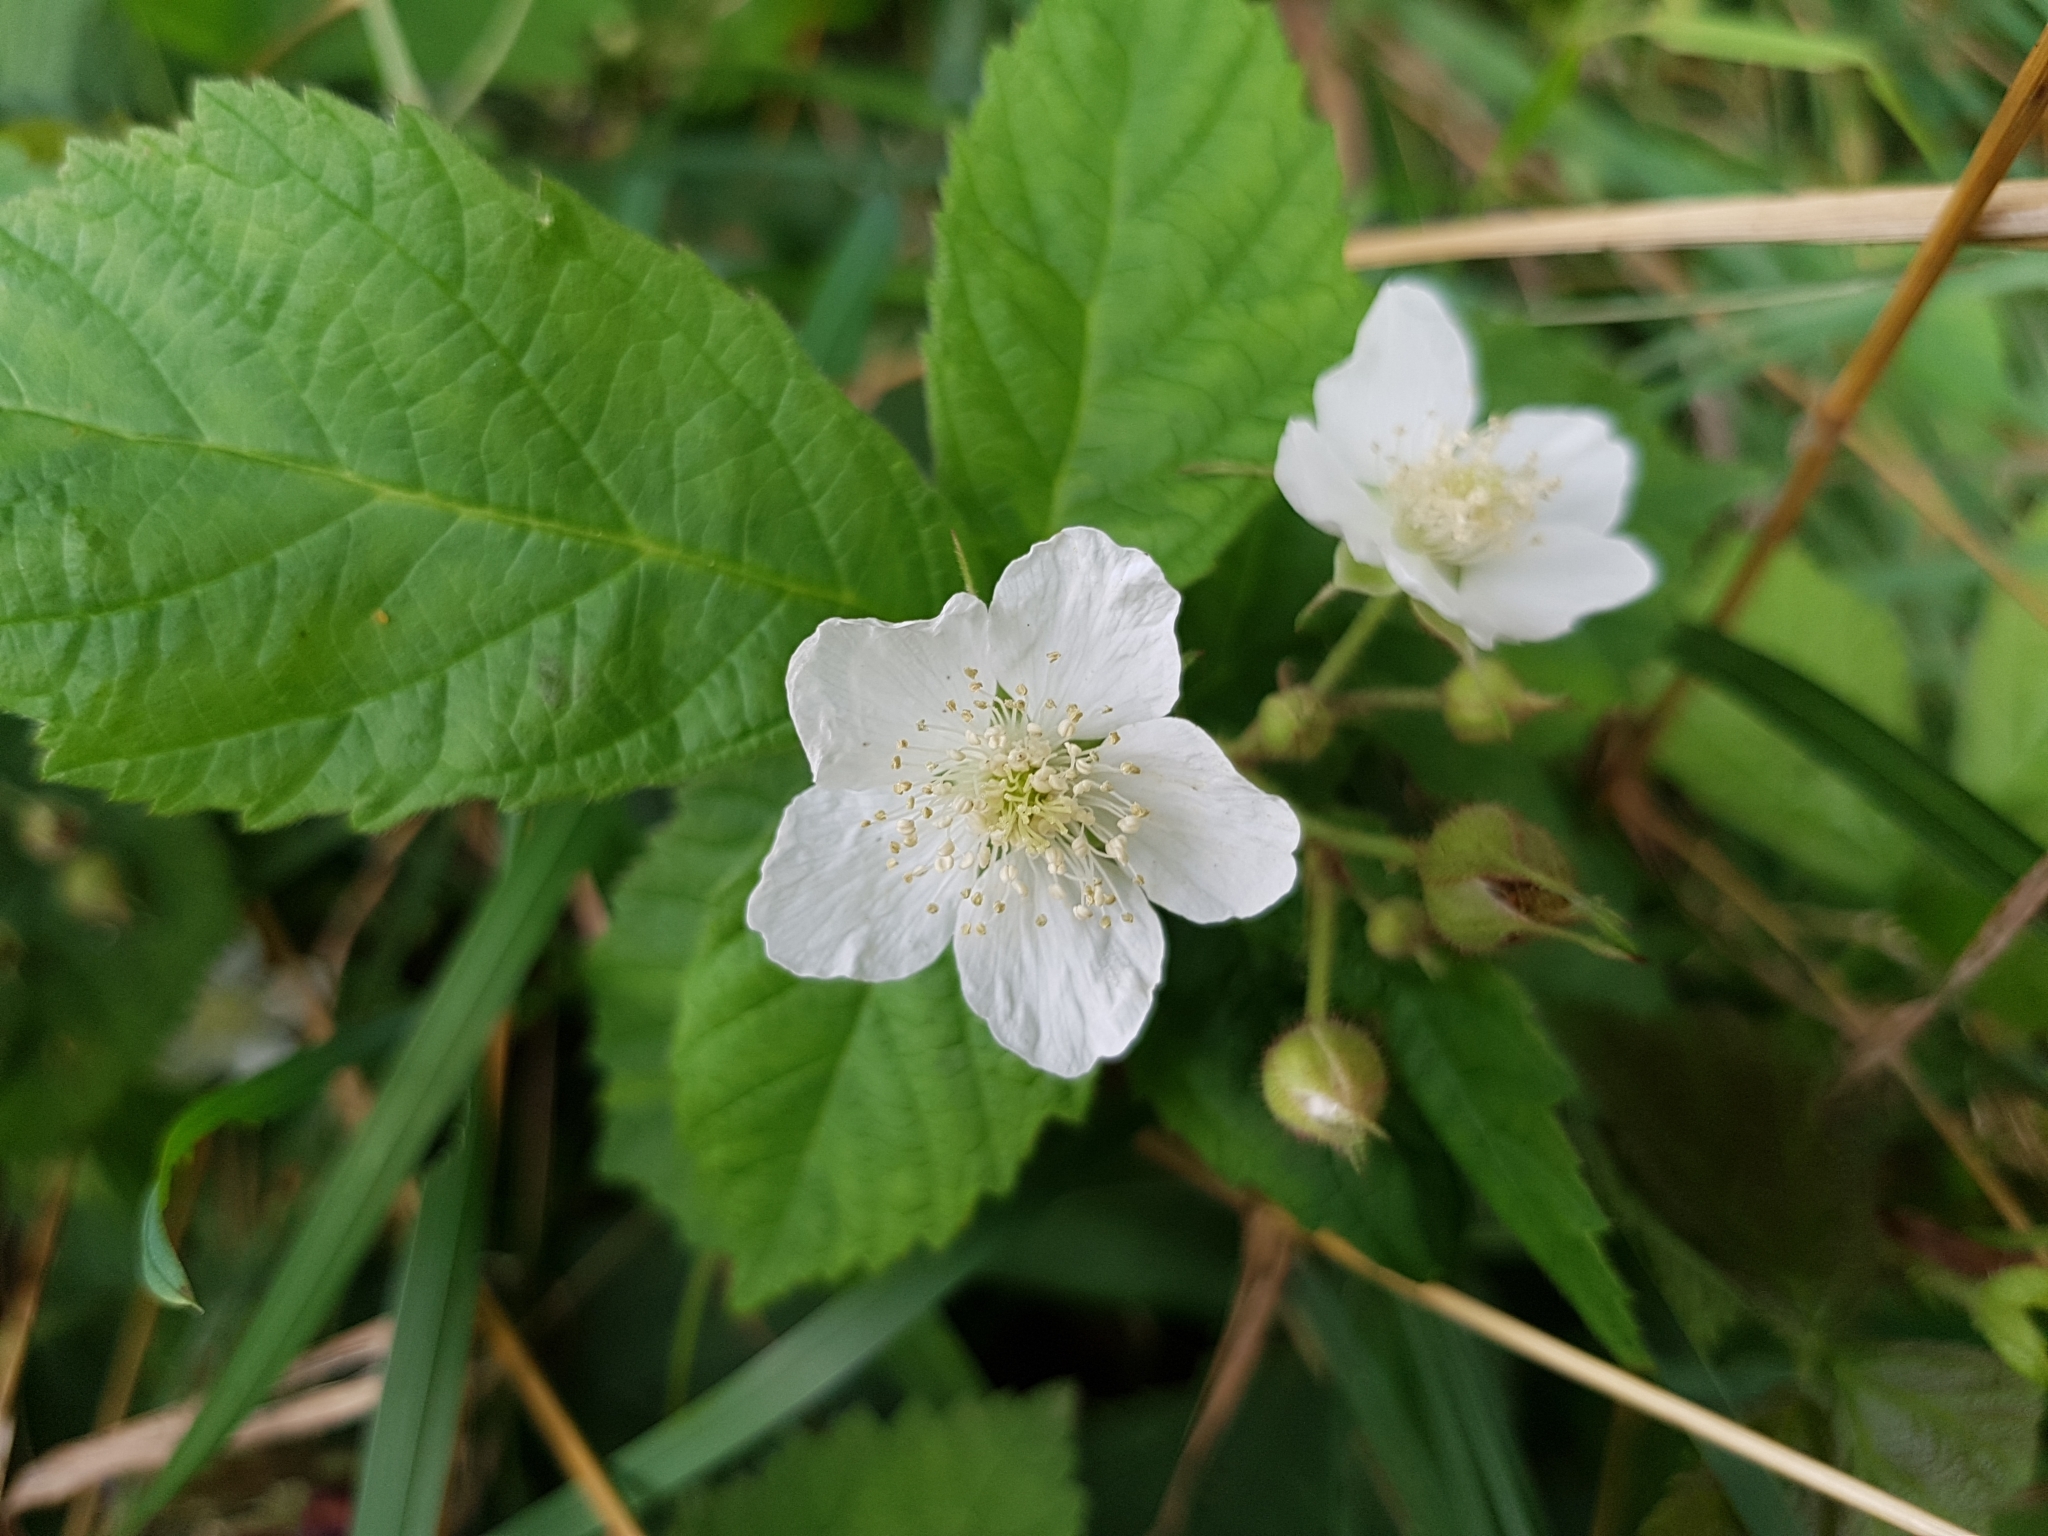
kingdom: Plantae
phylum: Tracheophyta
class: Magnoliopsida
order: Rosales
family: Rosaceae
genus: Rubus
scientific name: Rubus caesius
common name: Dewberry
